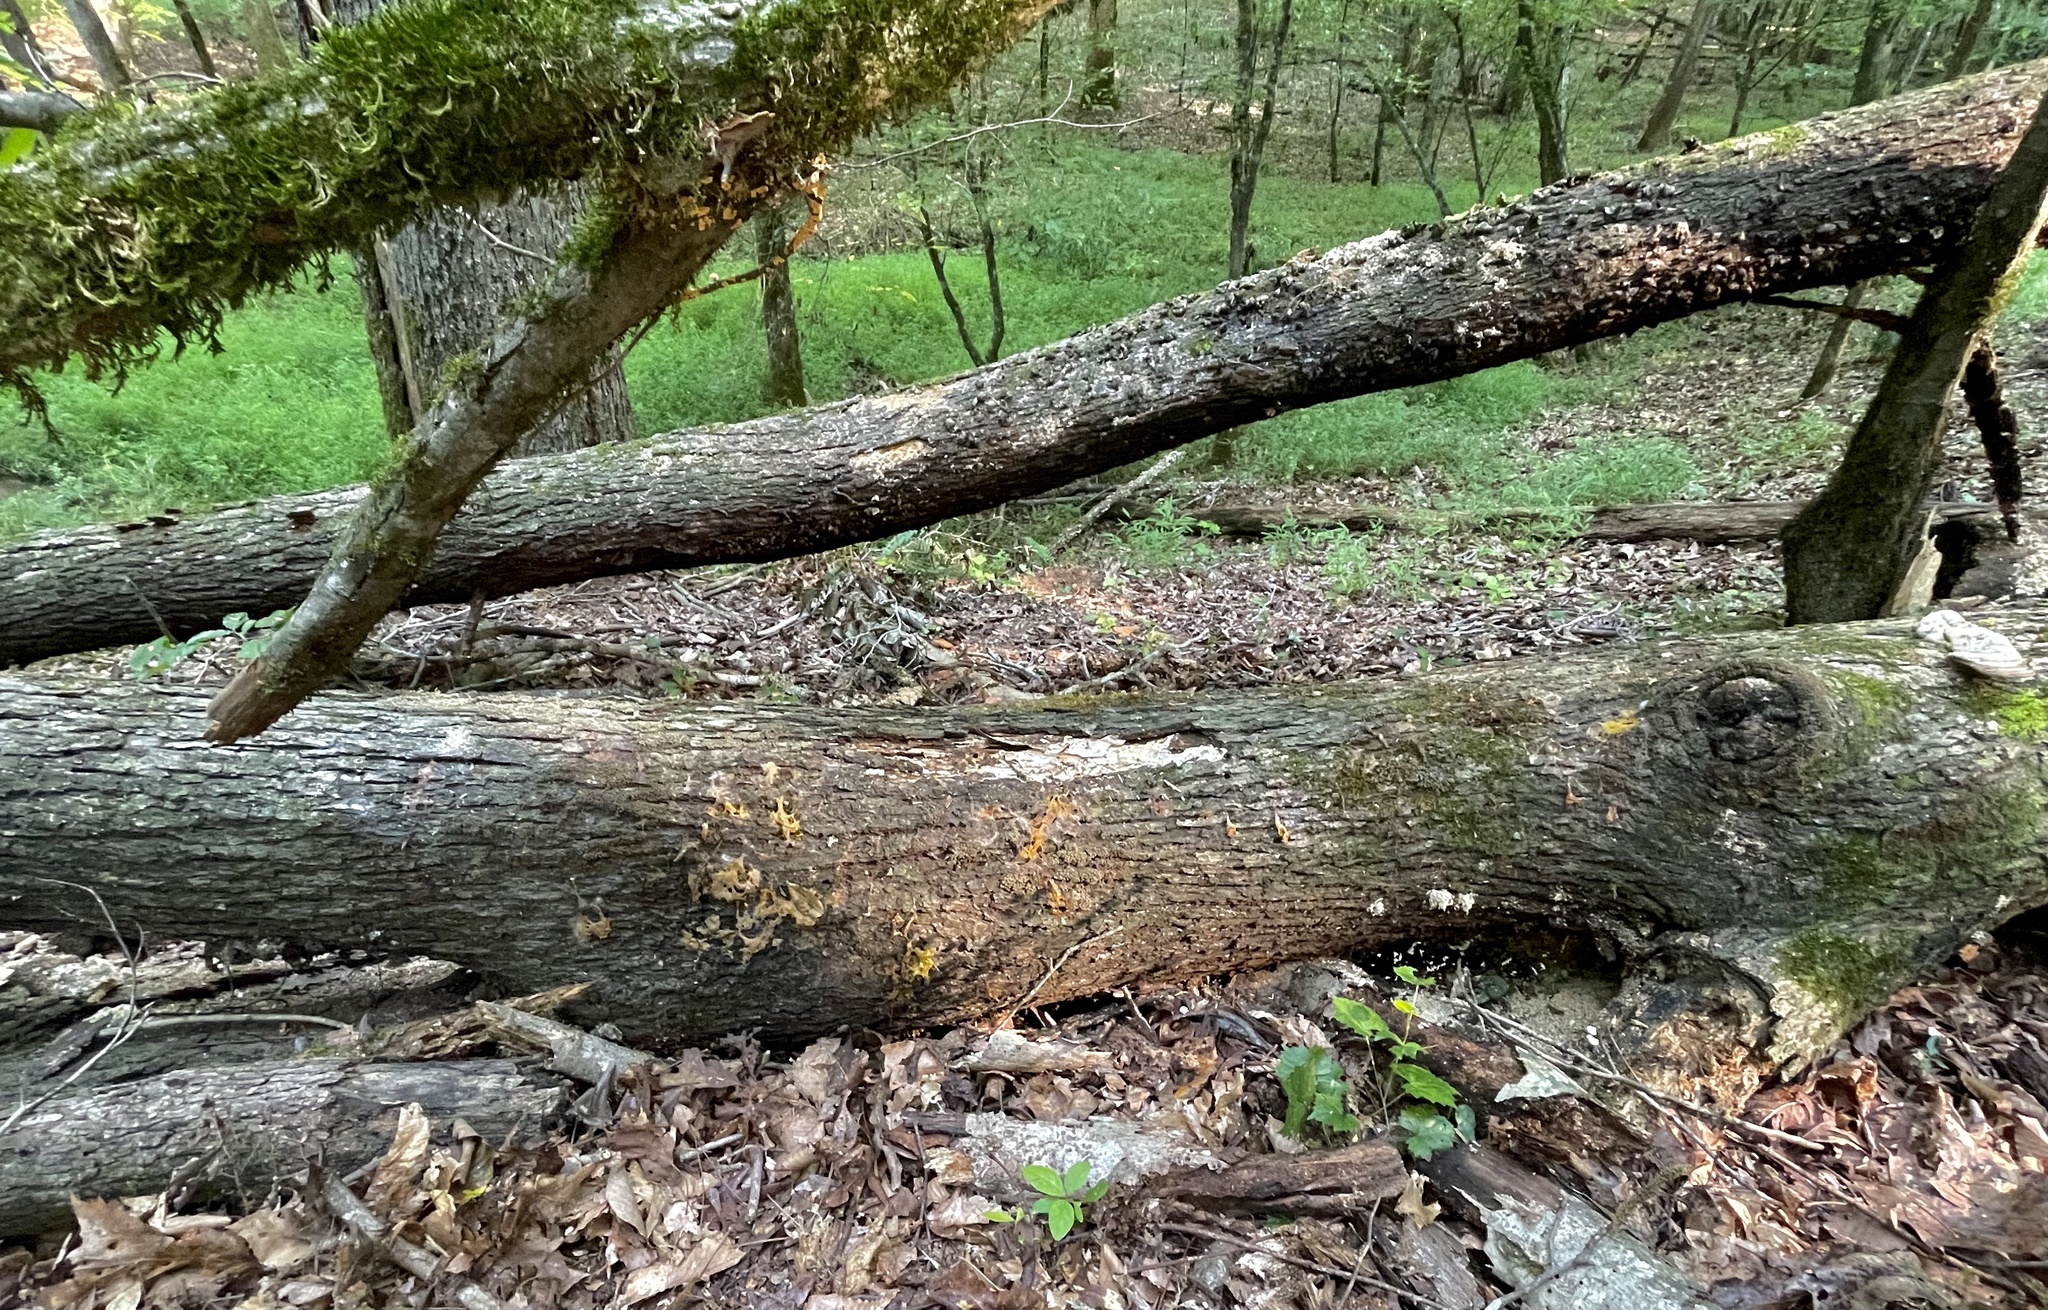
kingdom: Protozoa
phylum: Mycetozoa
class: Myxomycetes
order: Physarales
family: Physaraceae
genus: Physarum
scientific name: Physarum polycephalum
